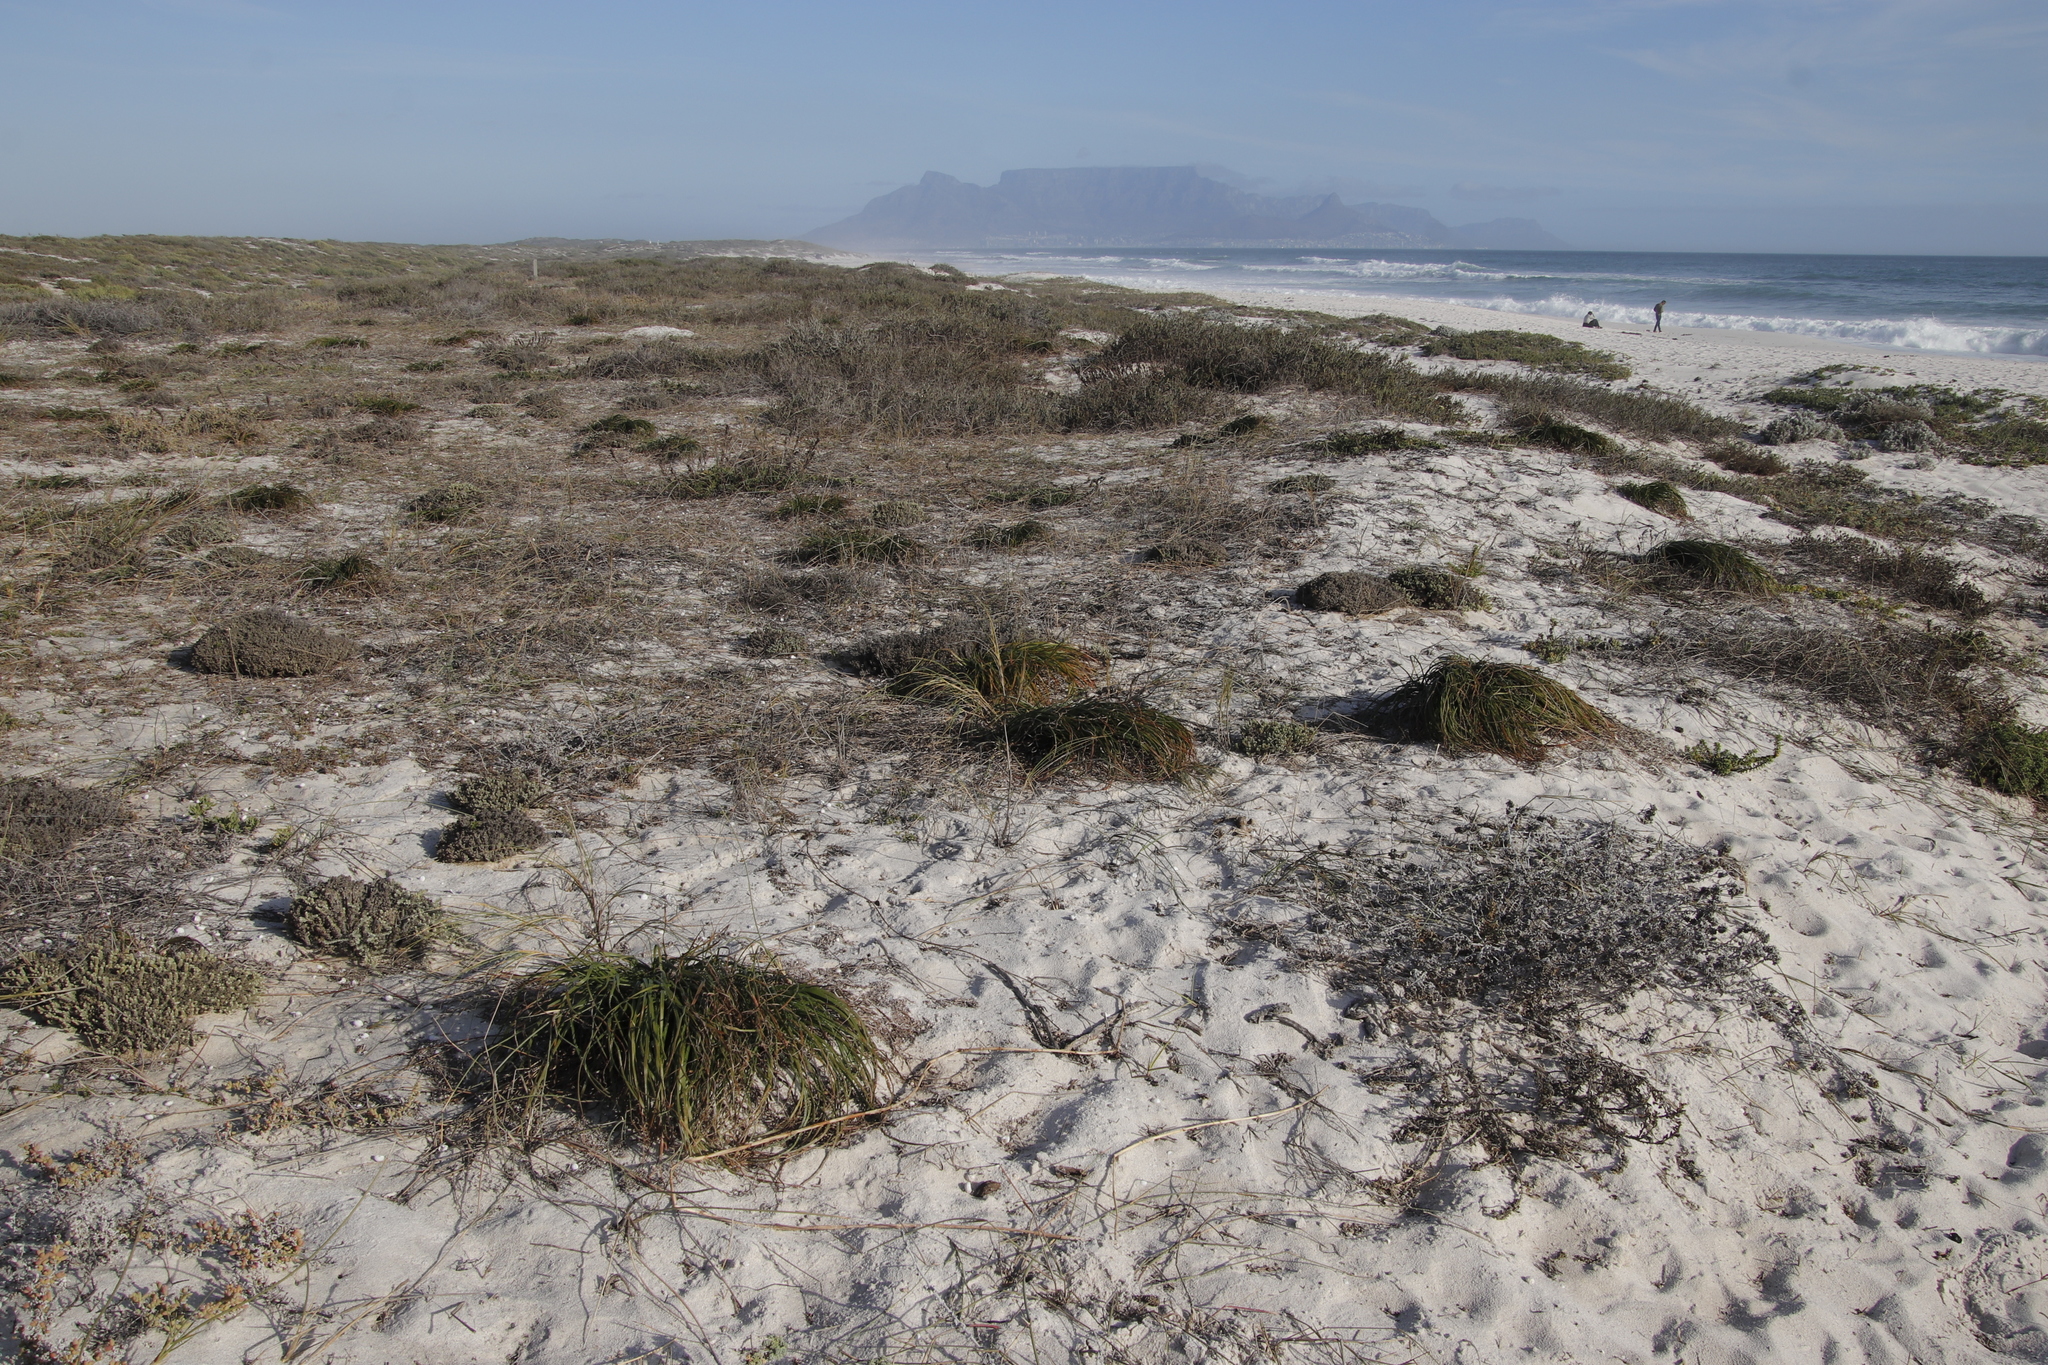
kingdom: Plantae
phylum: Tracheophyta
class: Liliopsida
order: Asparagales
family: Asphodelaceae
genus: Trachyandra
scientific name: Trachyandra divaricata
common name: Dune onionweed
